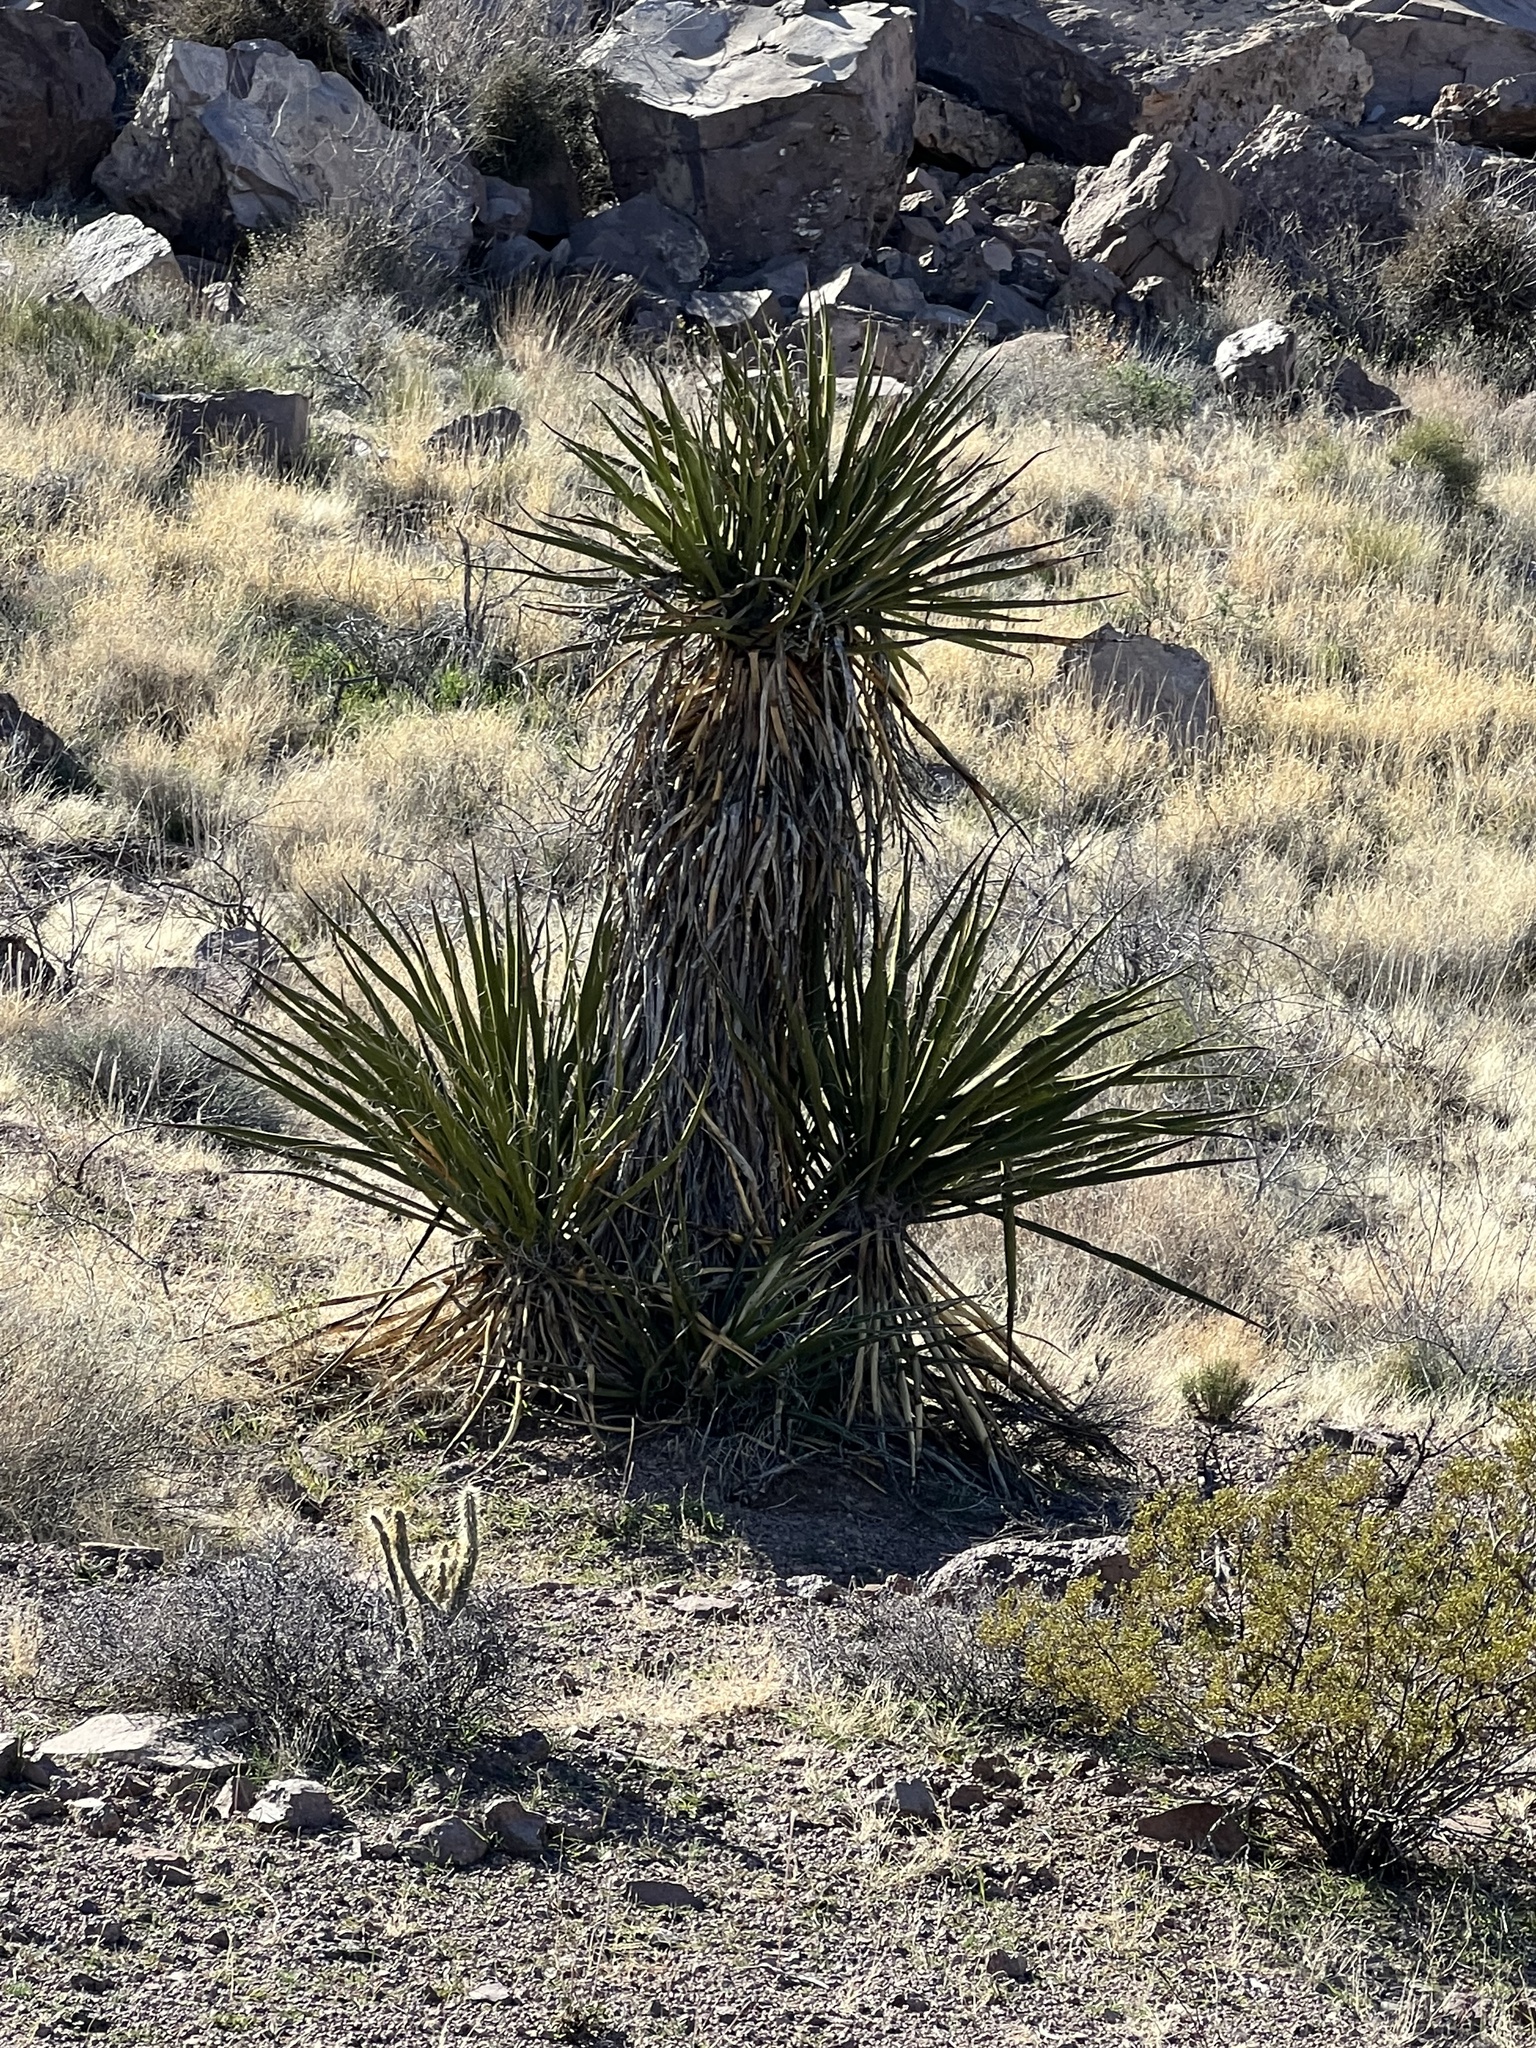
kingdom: Plantae
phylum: Tracheophyta
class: Liliopsida
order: Asparagales
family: Asparagaceae
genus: Yucca
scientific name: Yucca schidigera
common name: Mojave yucca
